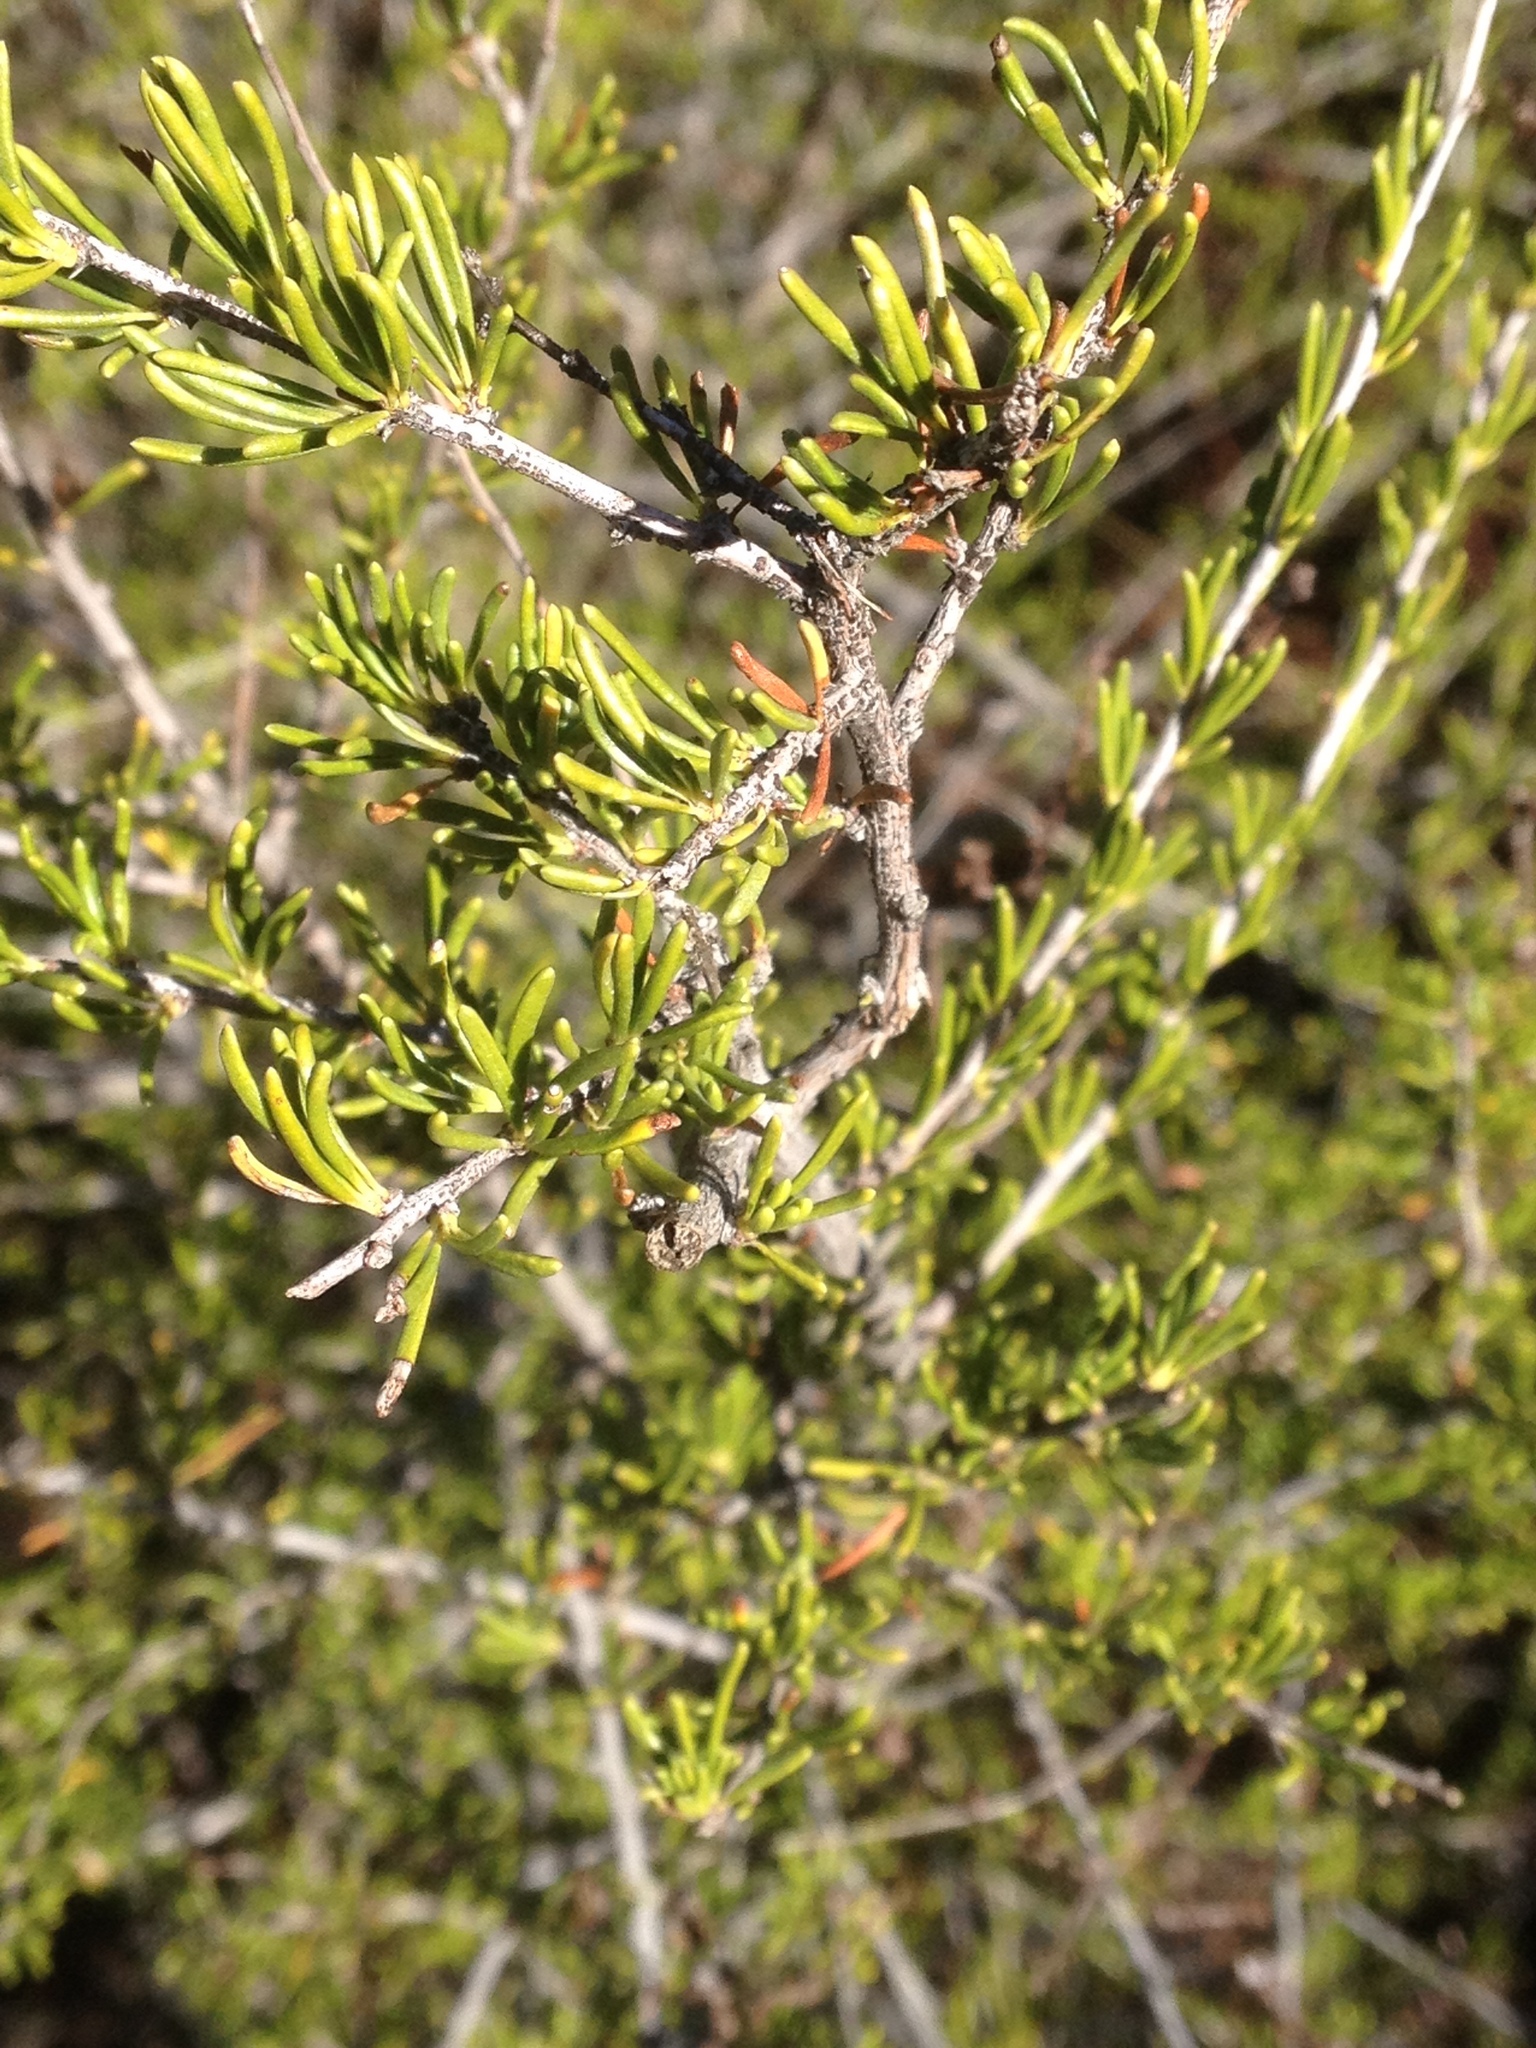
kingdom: Plantae
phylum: Tracheophyta
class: Magnoliopsida
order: Rosales
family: Rosaceae
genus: Adenostoma
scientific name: Adenostoma fasciculatum
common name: Chamise
